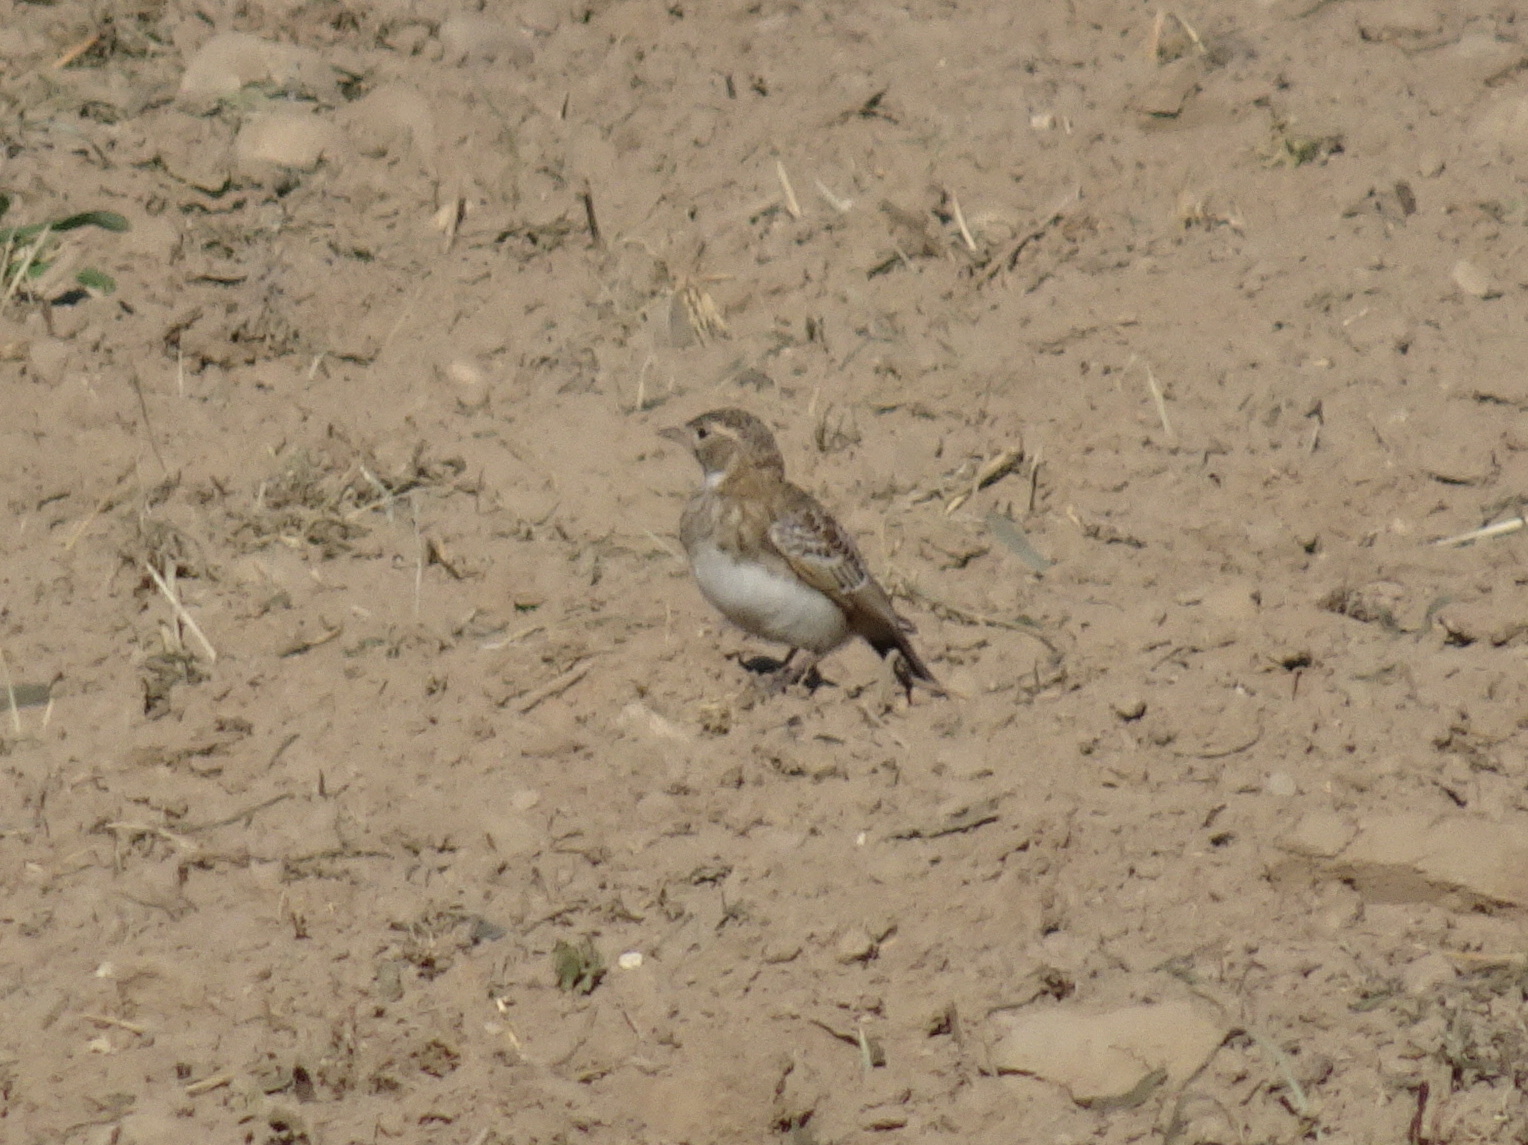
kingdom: Animalia
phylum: Chordata
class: Aves
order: Passeriformes
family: Alaudidae
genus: Eremophila
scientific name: Eremophila alpestris
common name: Horned lark
